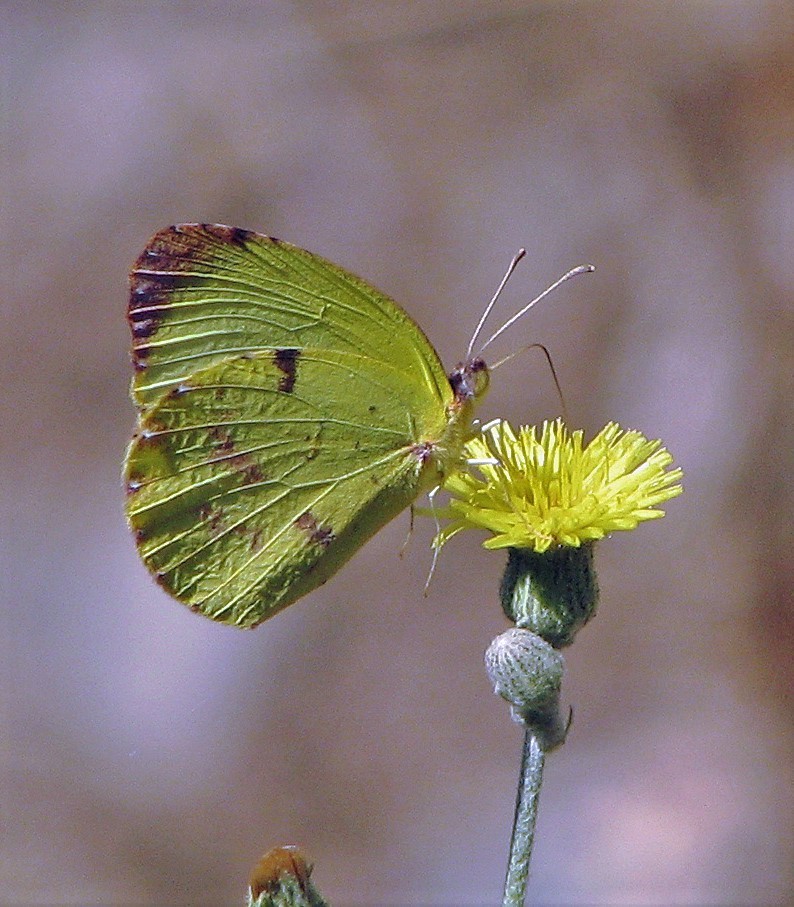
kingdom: Animalia
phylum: Arthropoda
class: Insecta
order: Lepidoptera
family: Pieridae
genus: Teriocolias
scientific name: Teriocolias
